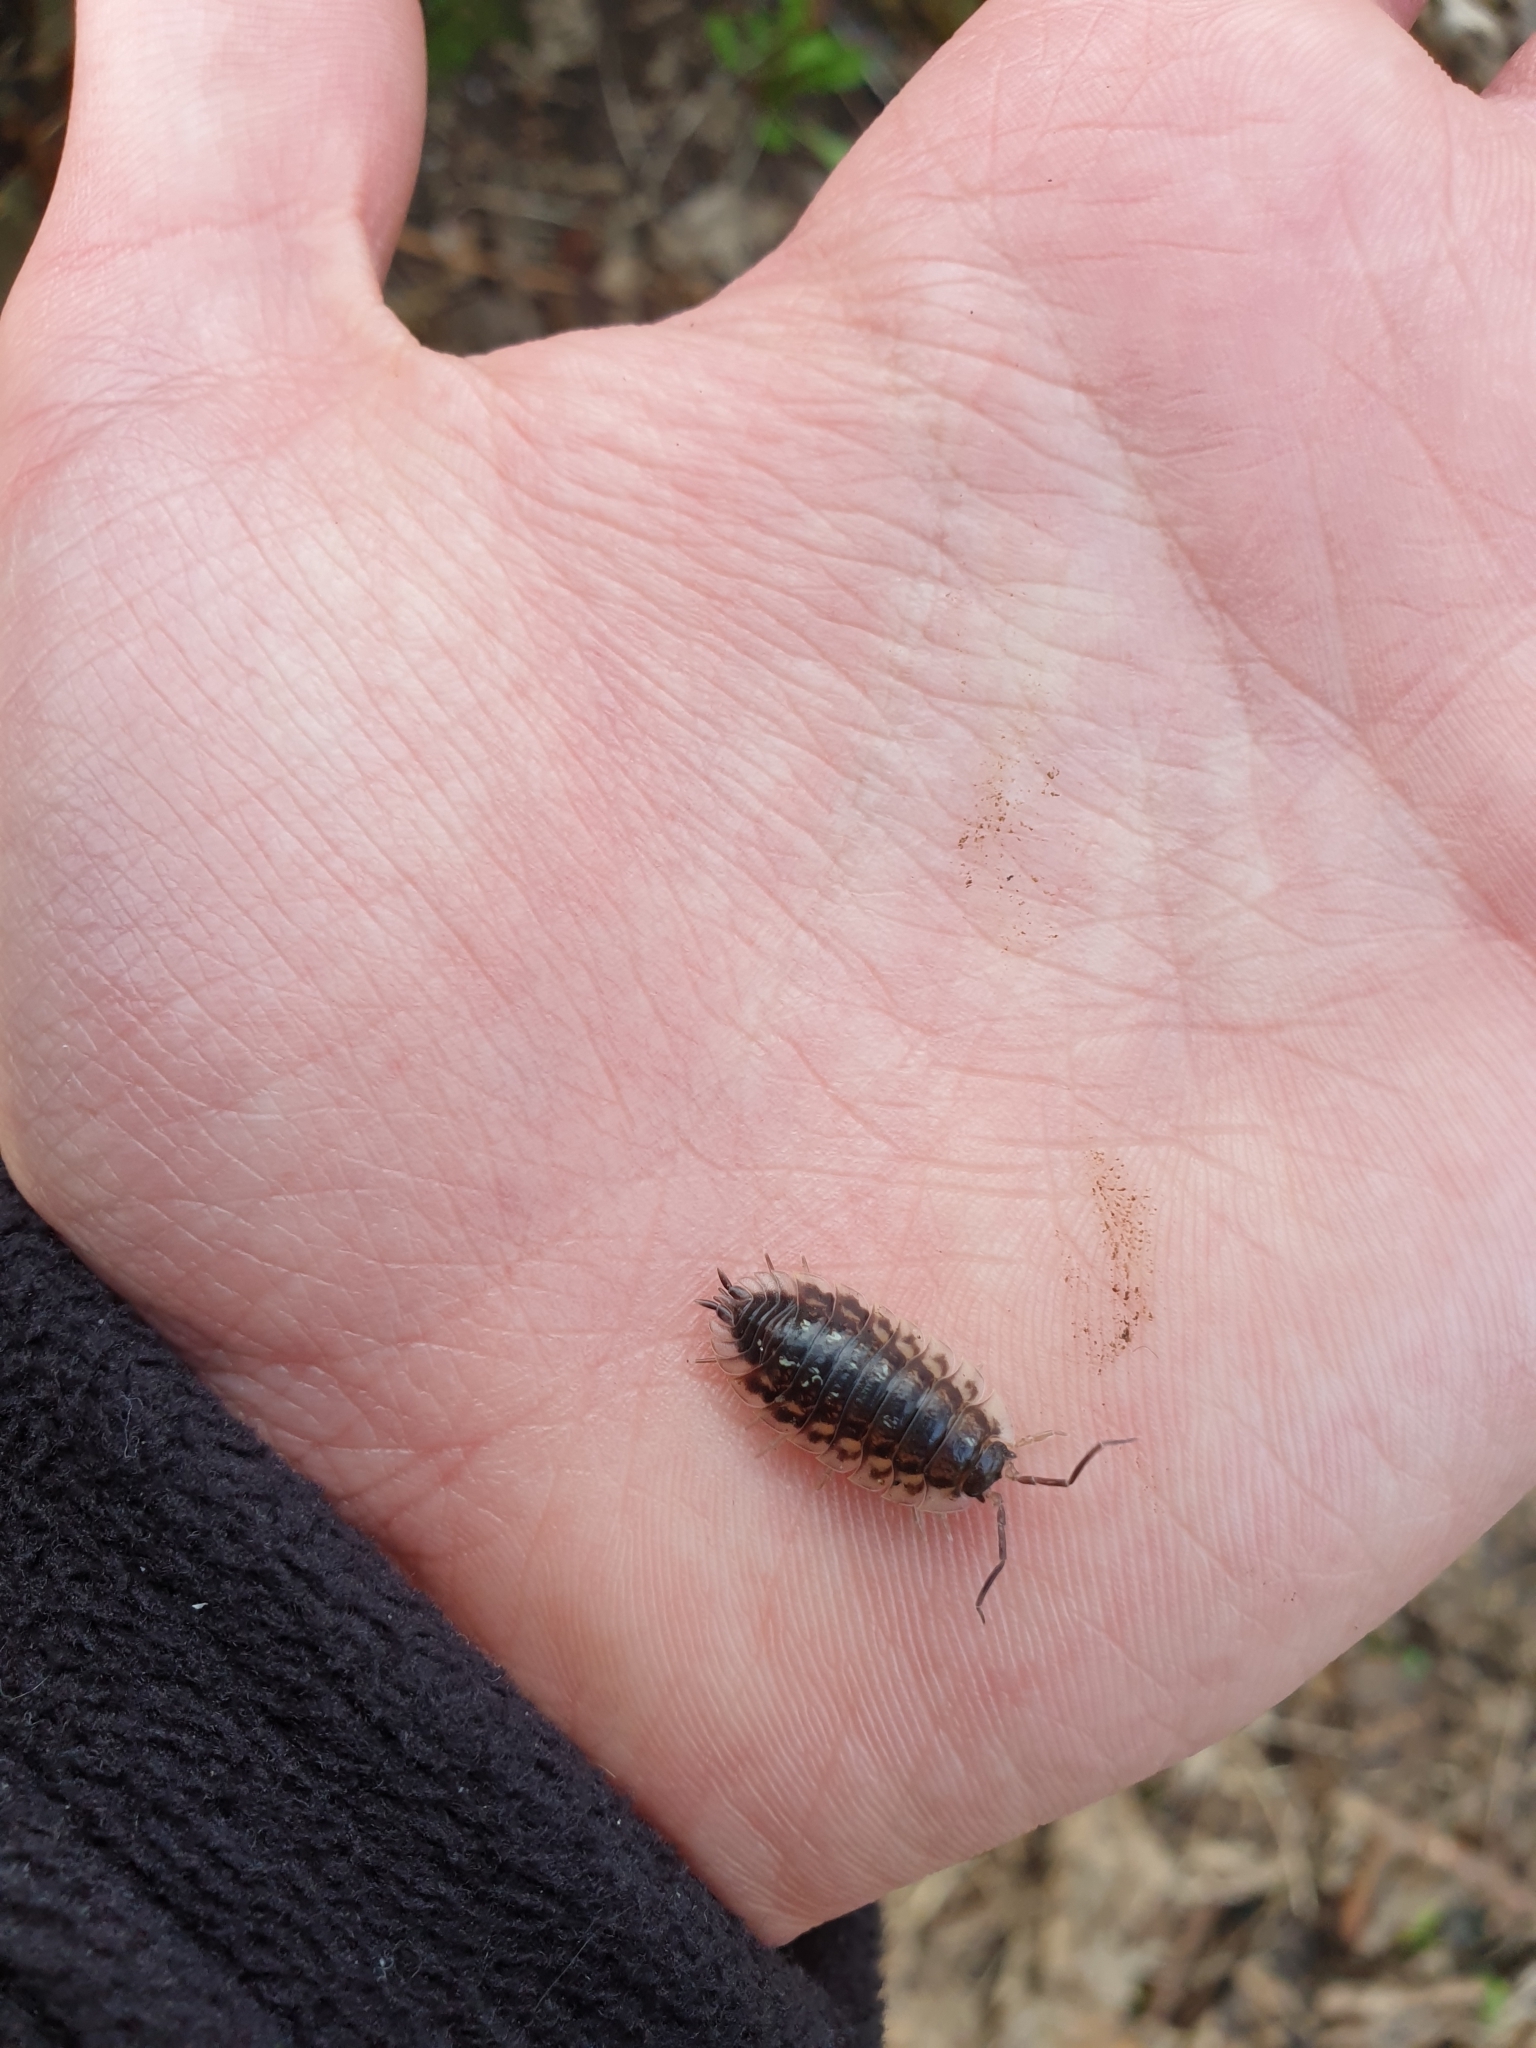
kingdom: Animalia
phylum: Arthropoda
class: Malacostraca
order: Isopoda
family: Oniscidae
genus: Oniscus
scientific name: Oniscus asellus
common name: Common shiny woodlouse
